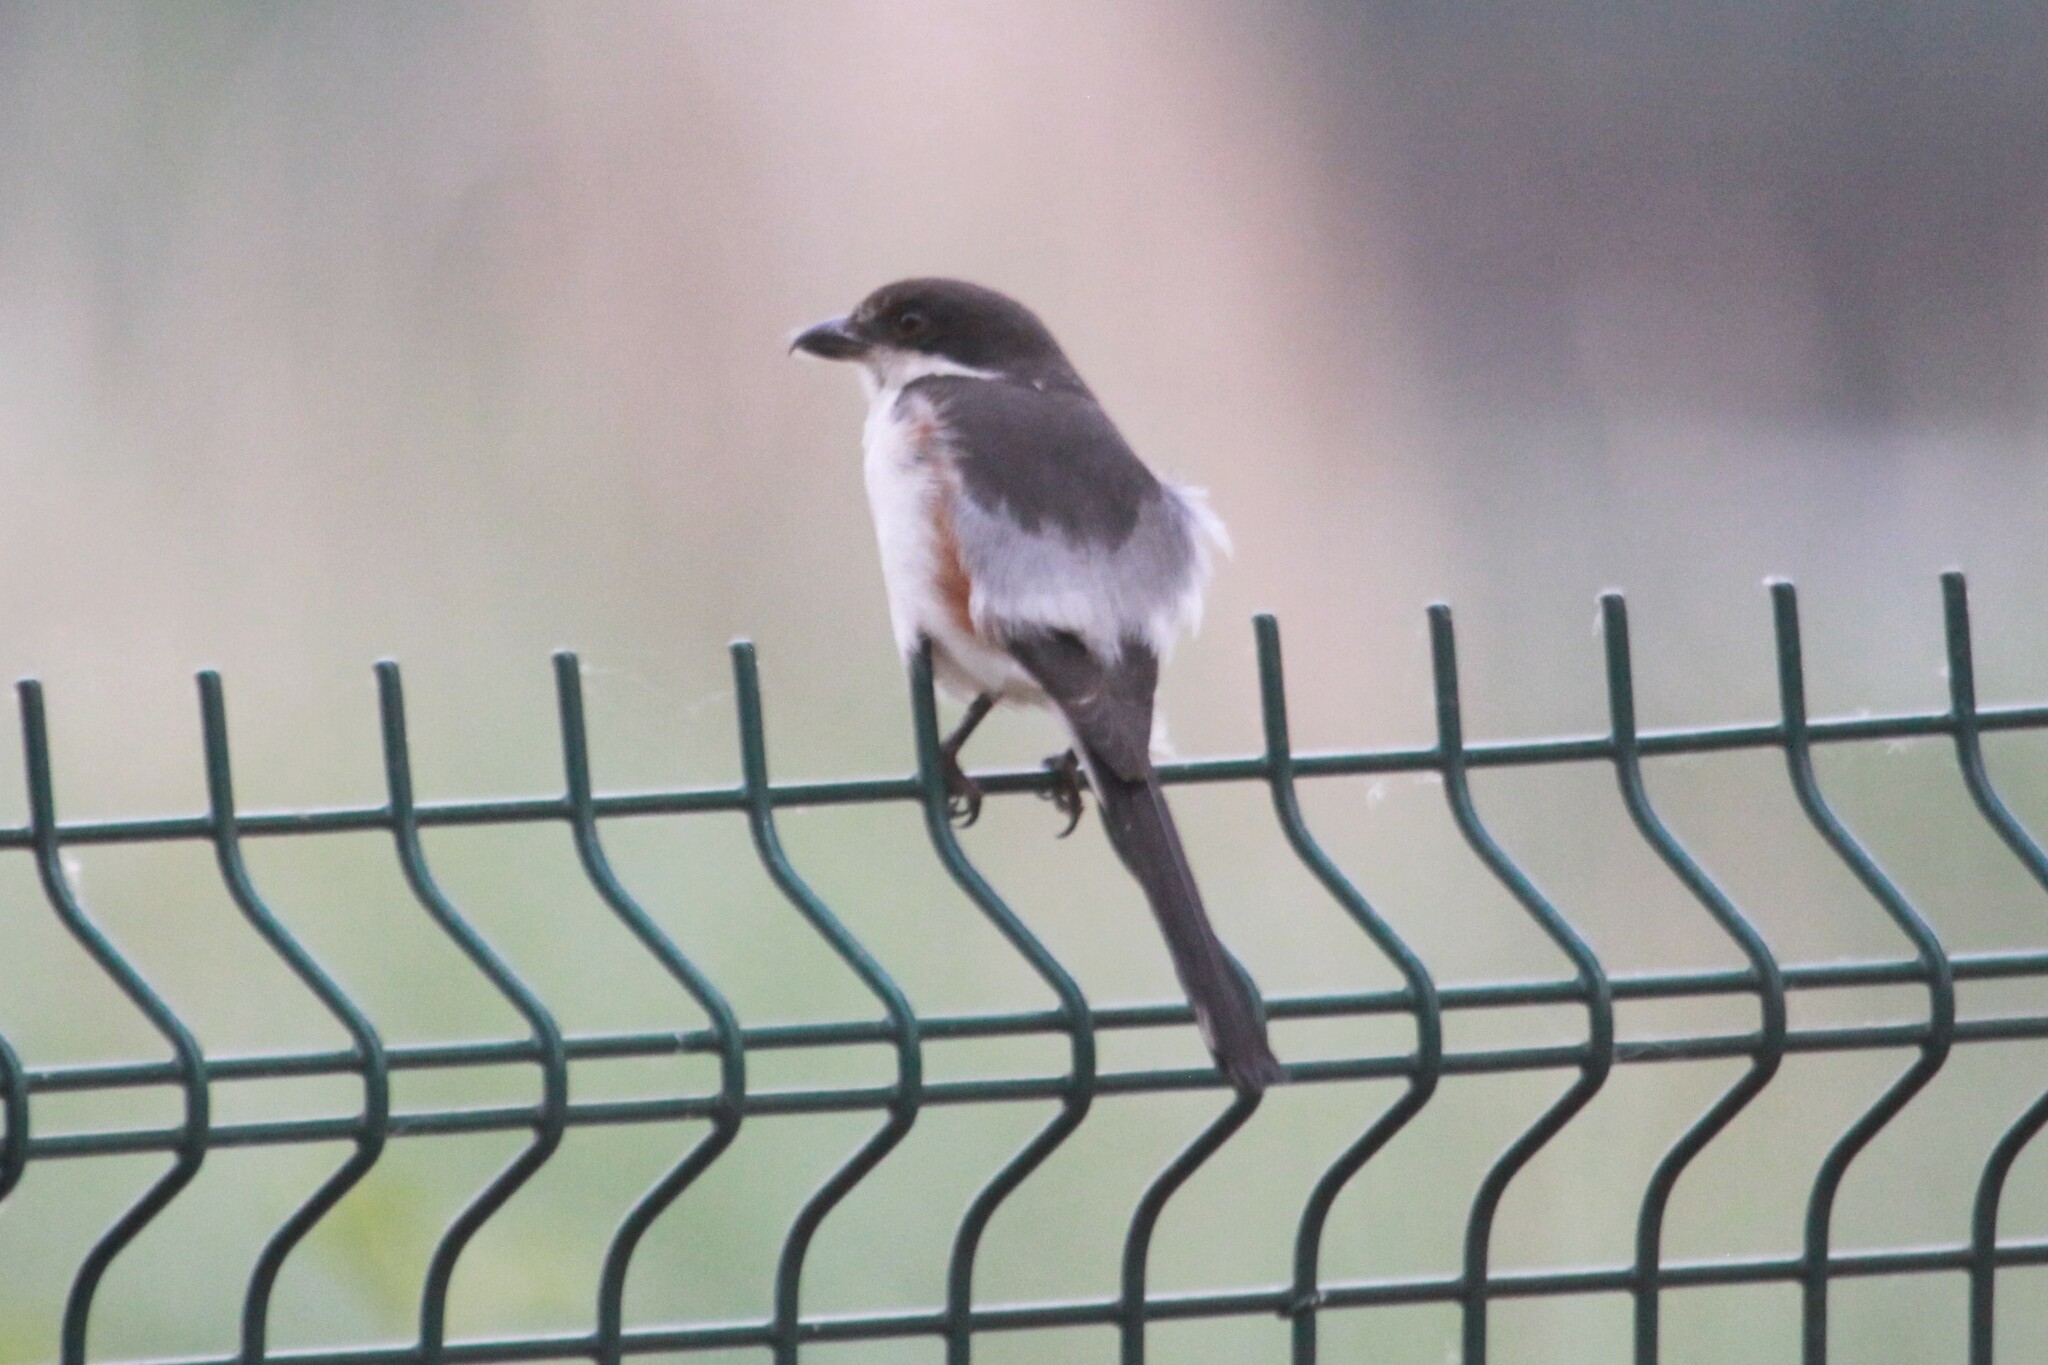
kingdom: Animalia
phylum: Chordata
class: Aves
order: Passeriformes
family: Laniidae
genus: Lanius
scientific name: Lanius collaris
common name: Southern fiscal
